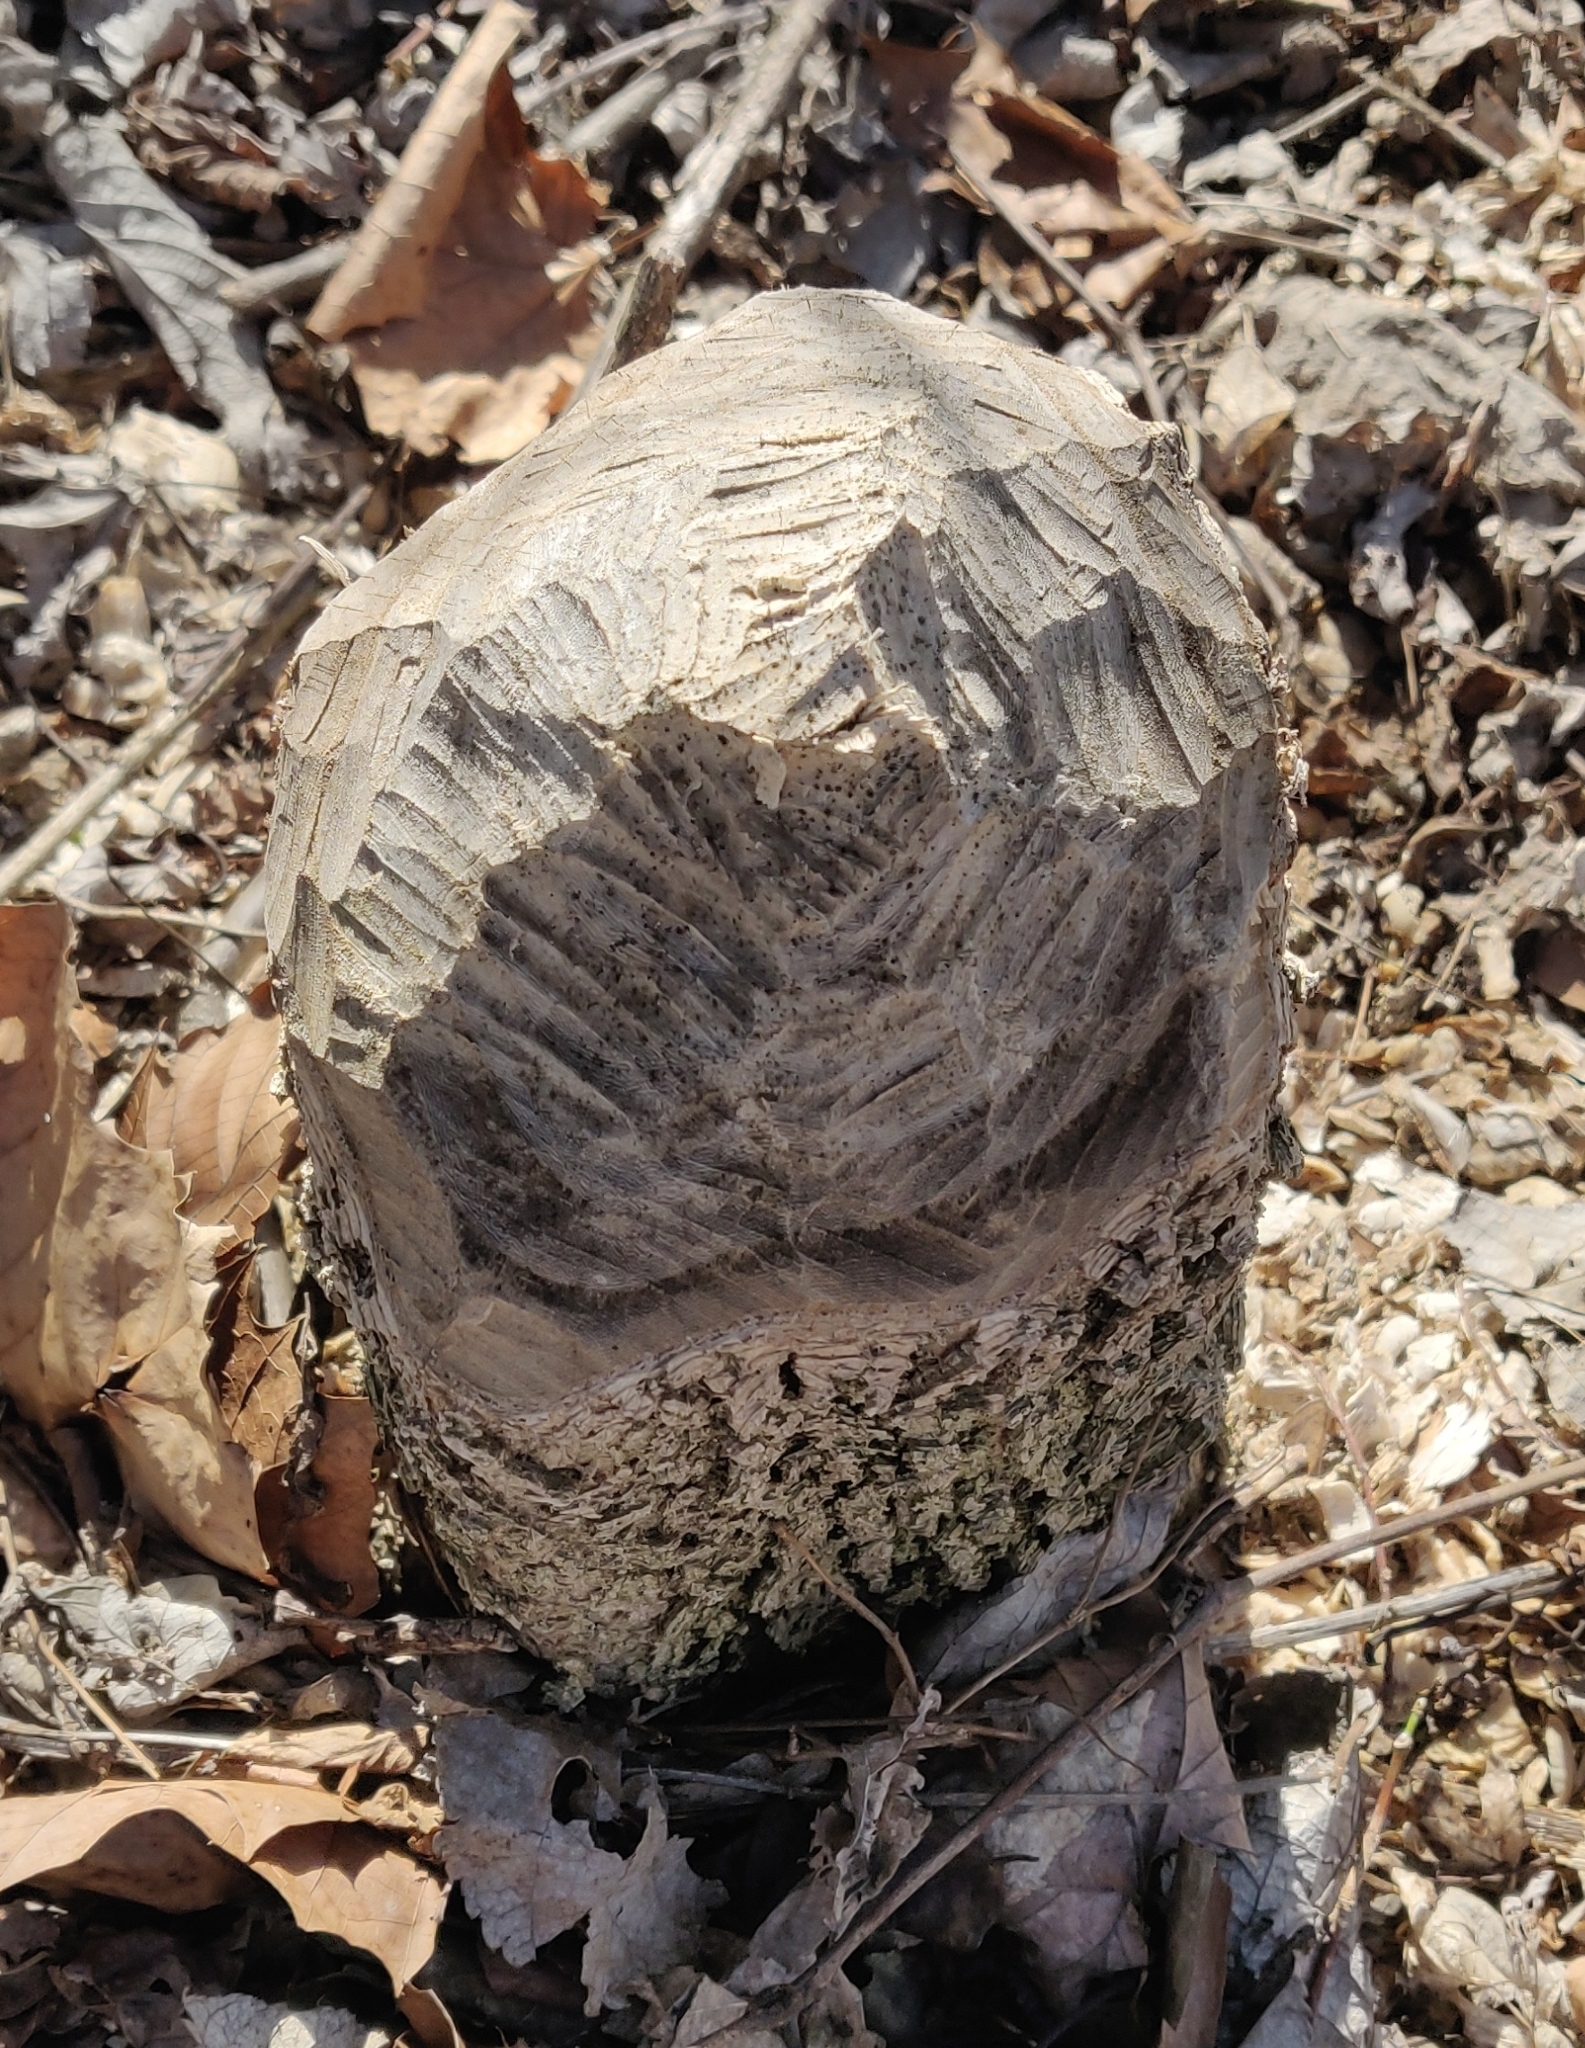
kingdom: Animalia
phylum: Chordata
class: Mammalia
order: Rodentia
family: Castoridae
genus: Castor
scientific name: Castor canadensis
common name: American beaver
